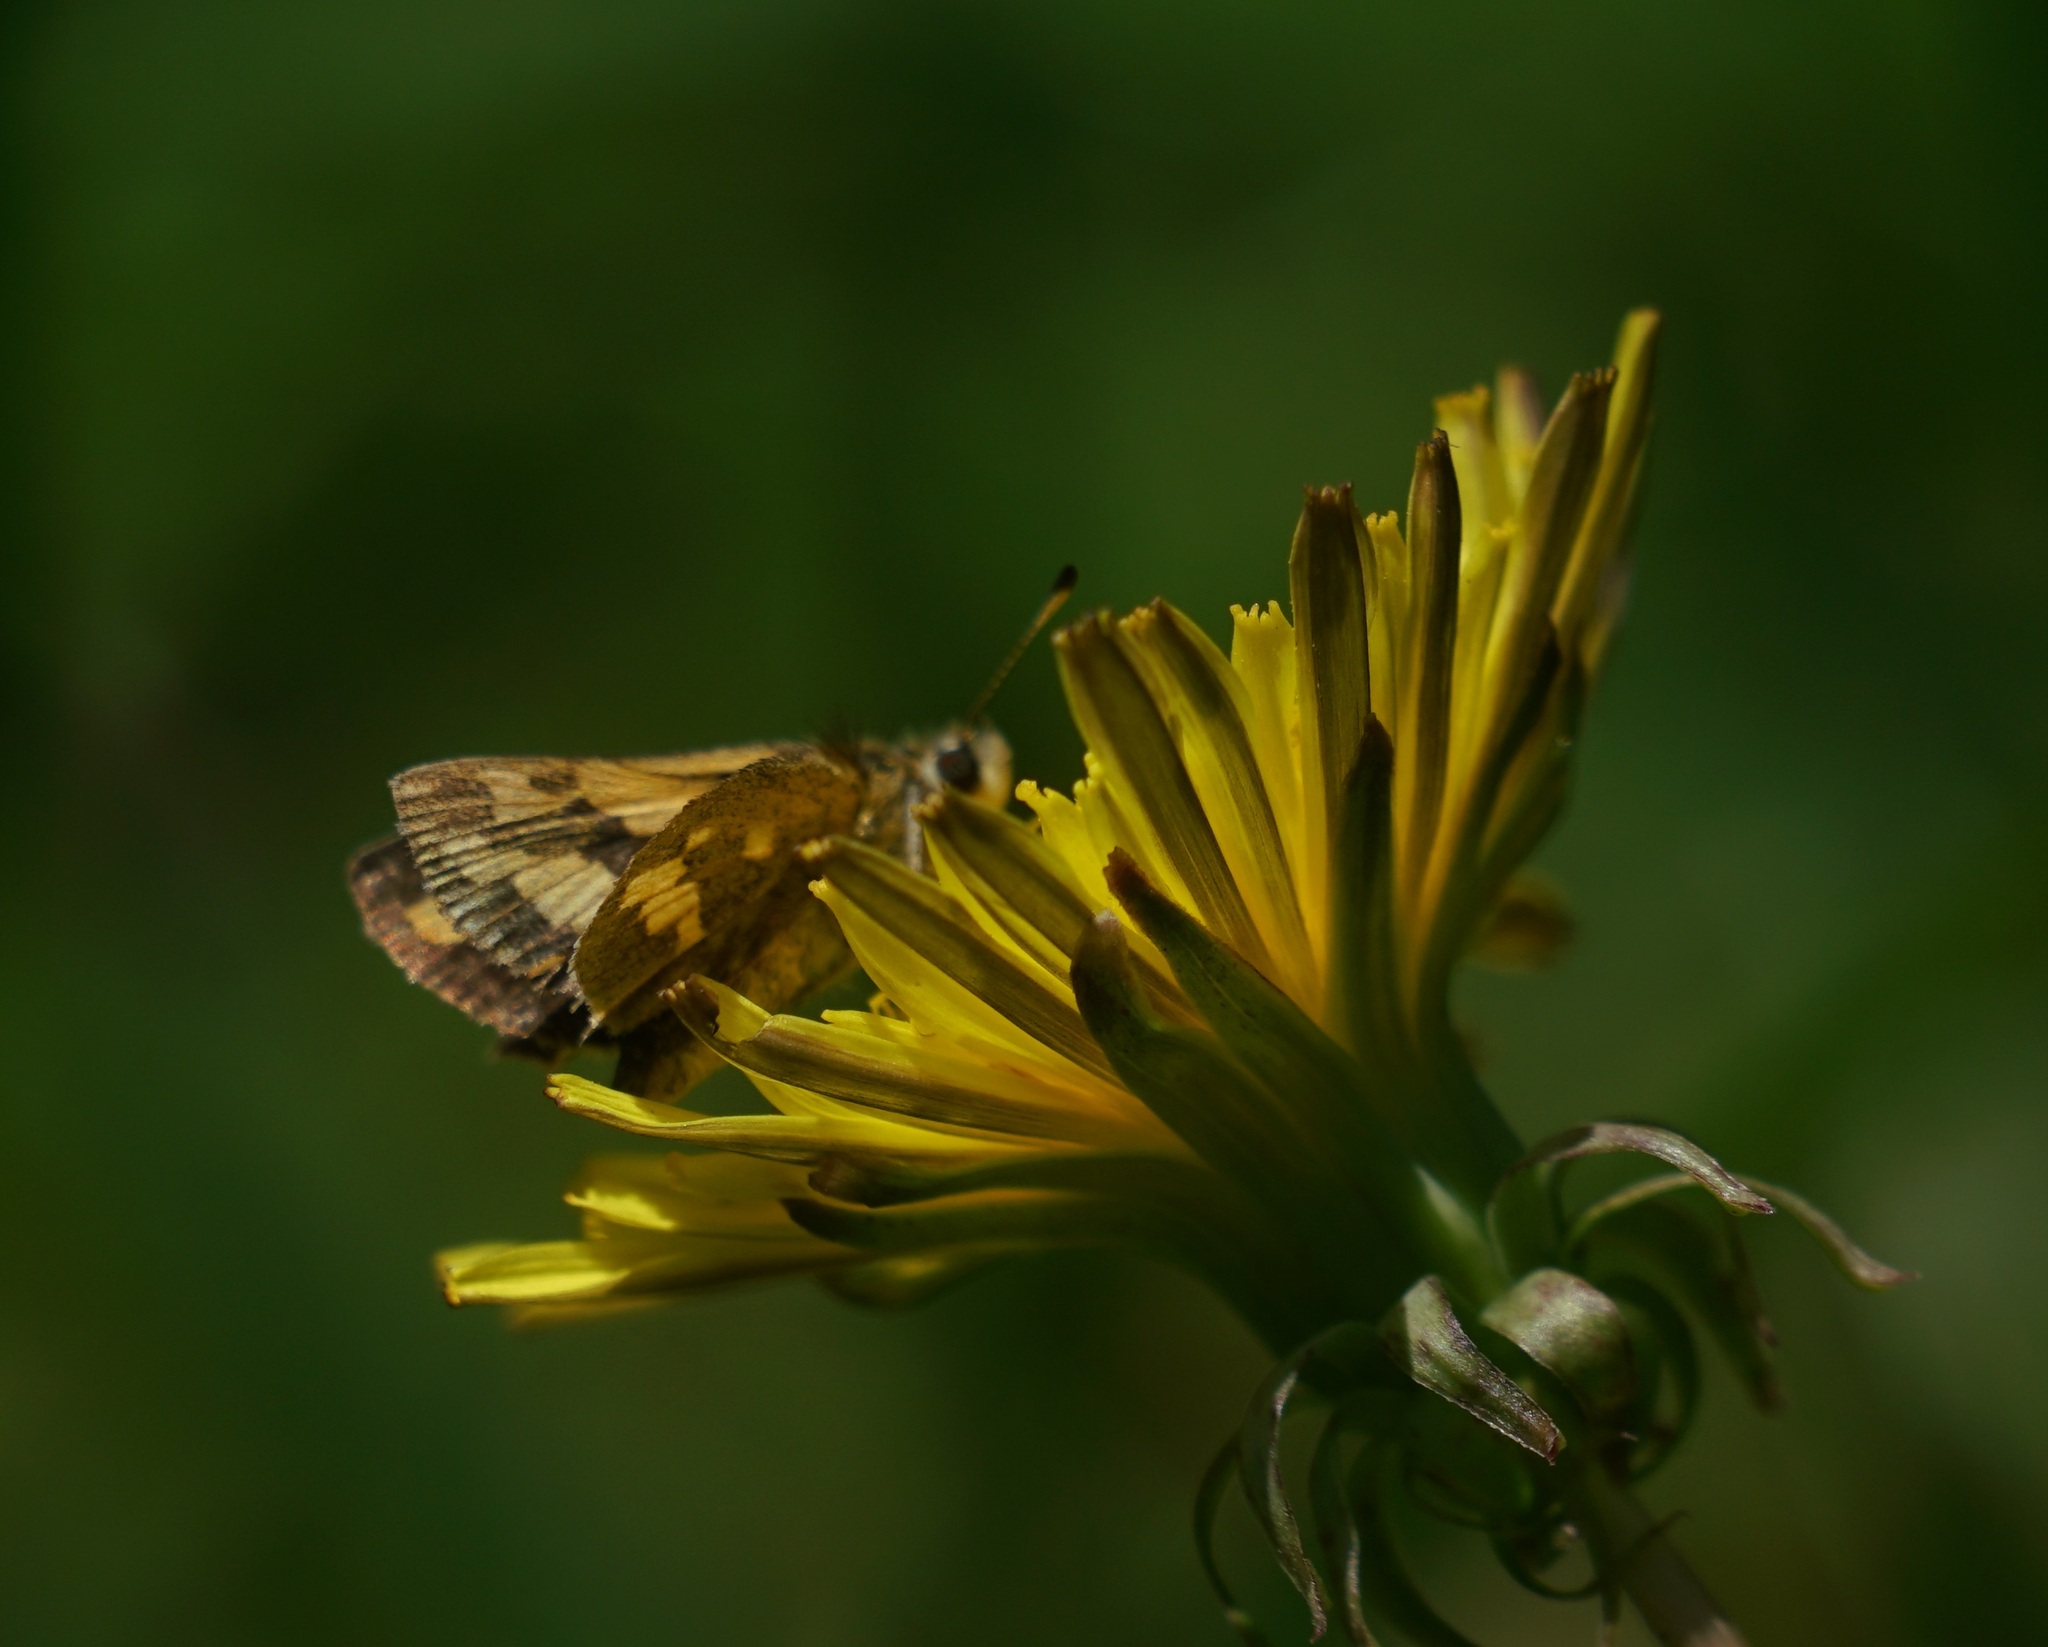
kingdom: Animalia
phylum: Arthropoda
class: Insecta
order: Lepidoptera
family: Hesperiidae
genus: Ocybadistes
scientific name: Ocybadistes walkeri
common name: Yellow-banded dart
